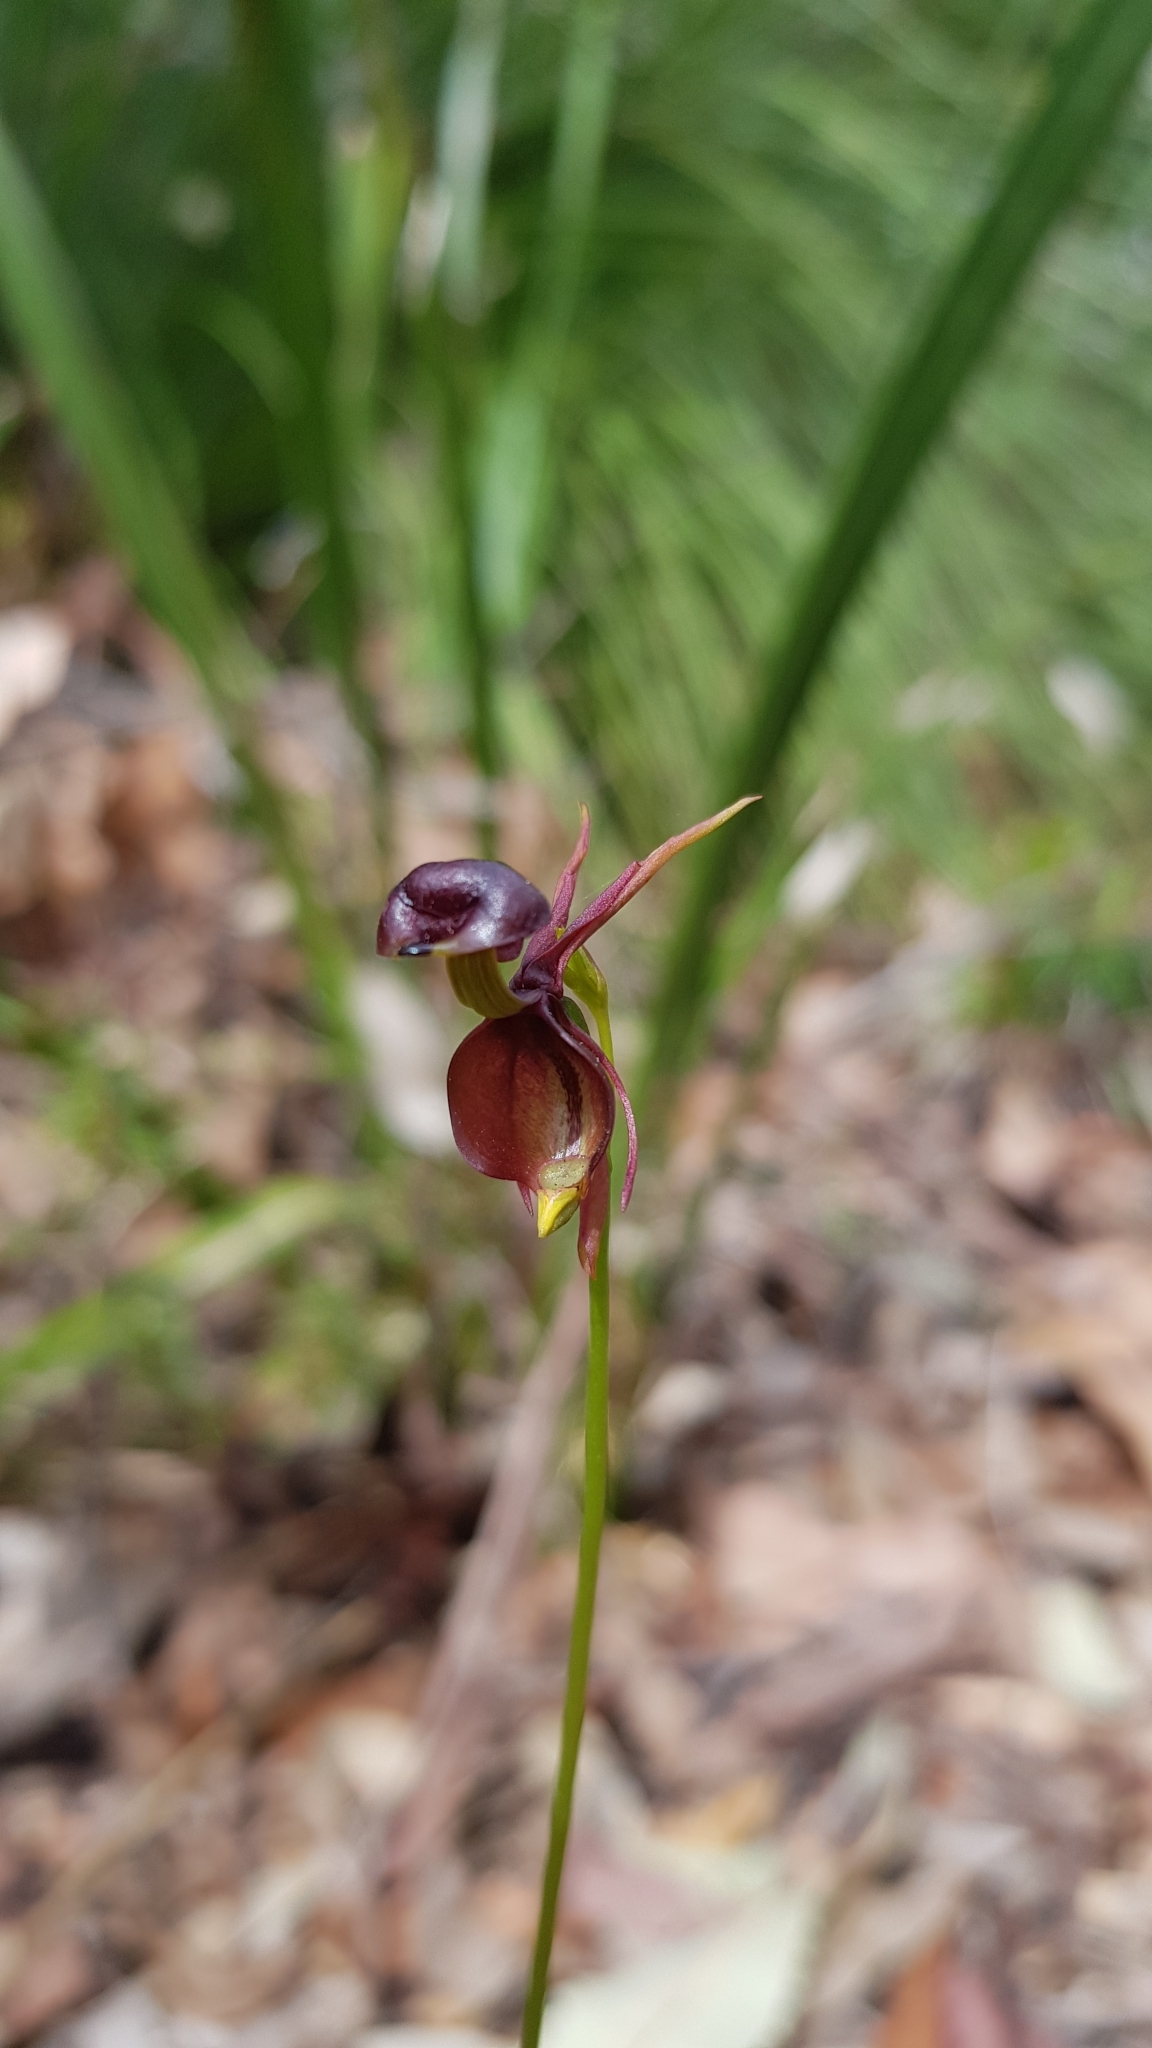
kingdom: Plantae
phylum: Tracheophyta
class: Liliopsida
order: Asparagales
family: Orchidaceae
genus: Caleana
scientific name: Caleana major
